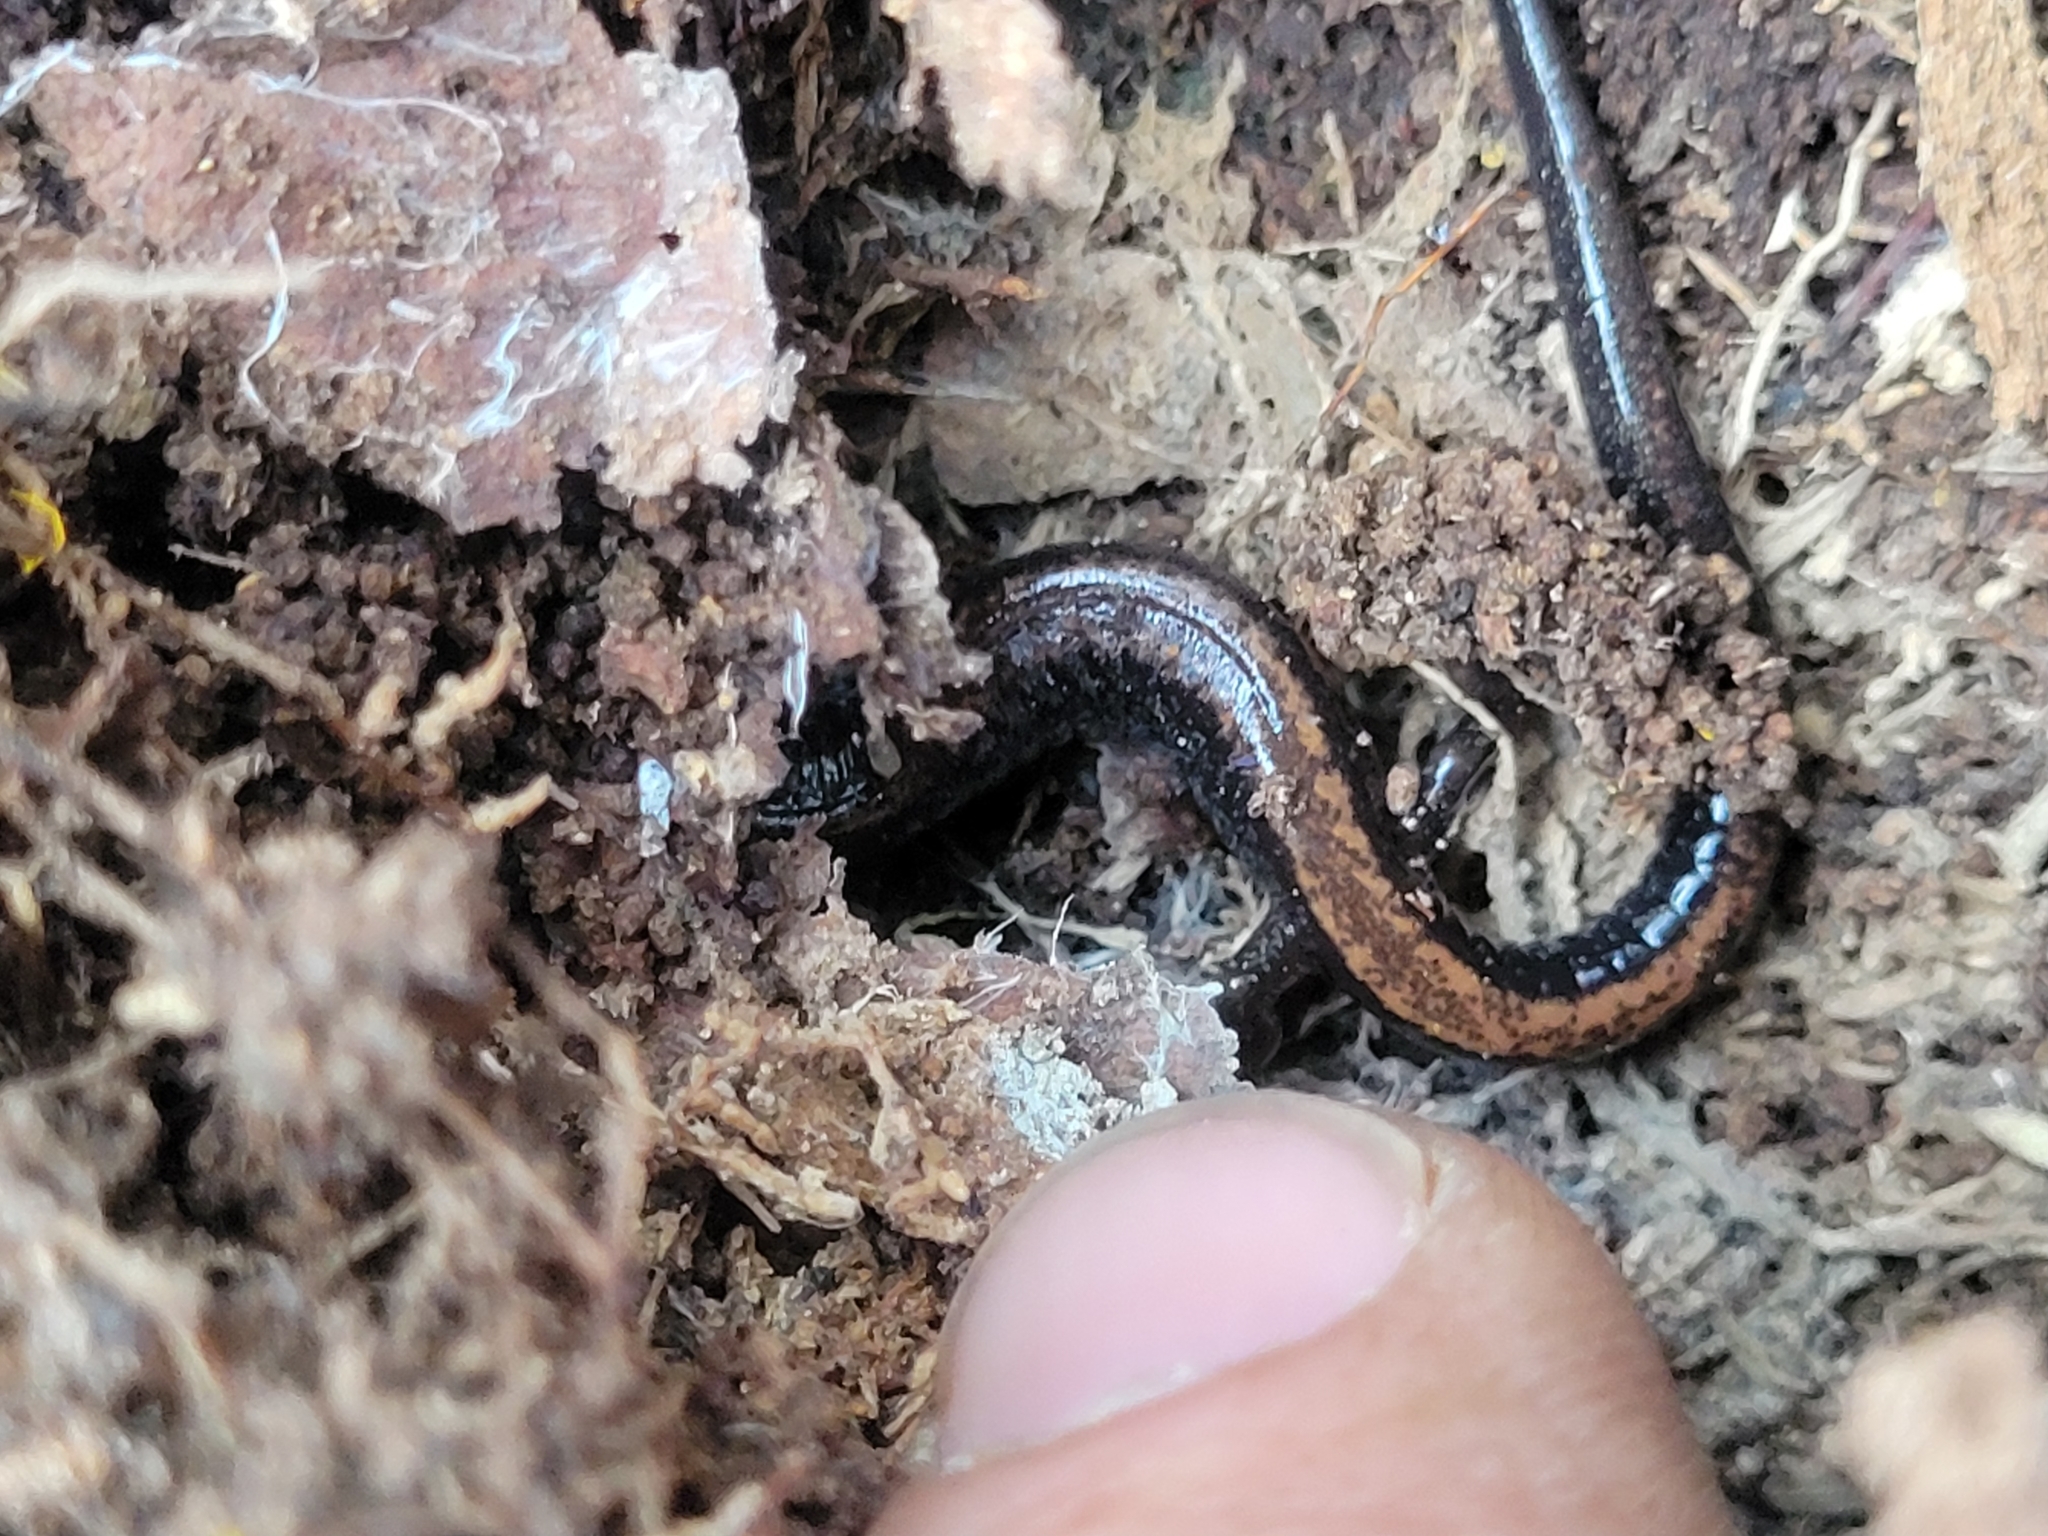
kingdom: Animalia
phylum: Chordata
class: Amphibia
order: Caudata
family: Plethodontidae
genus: Plethodon
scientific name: Plethodon cinereus
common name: Redback salamander
